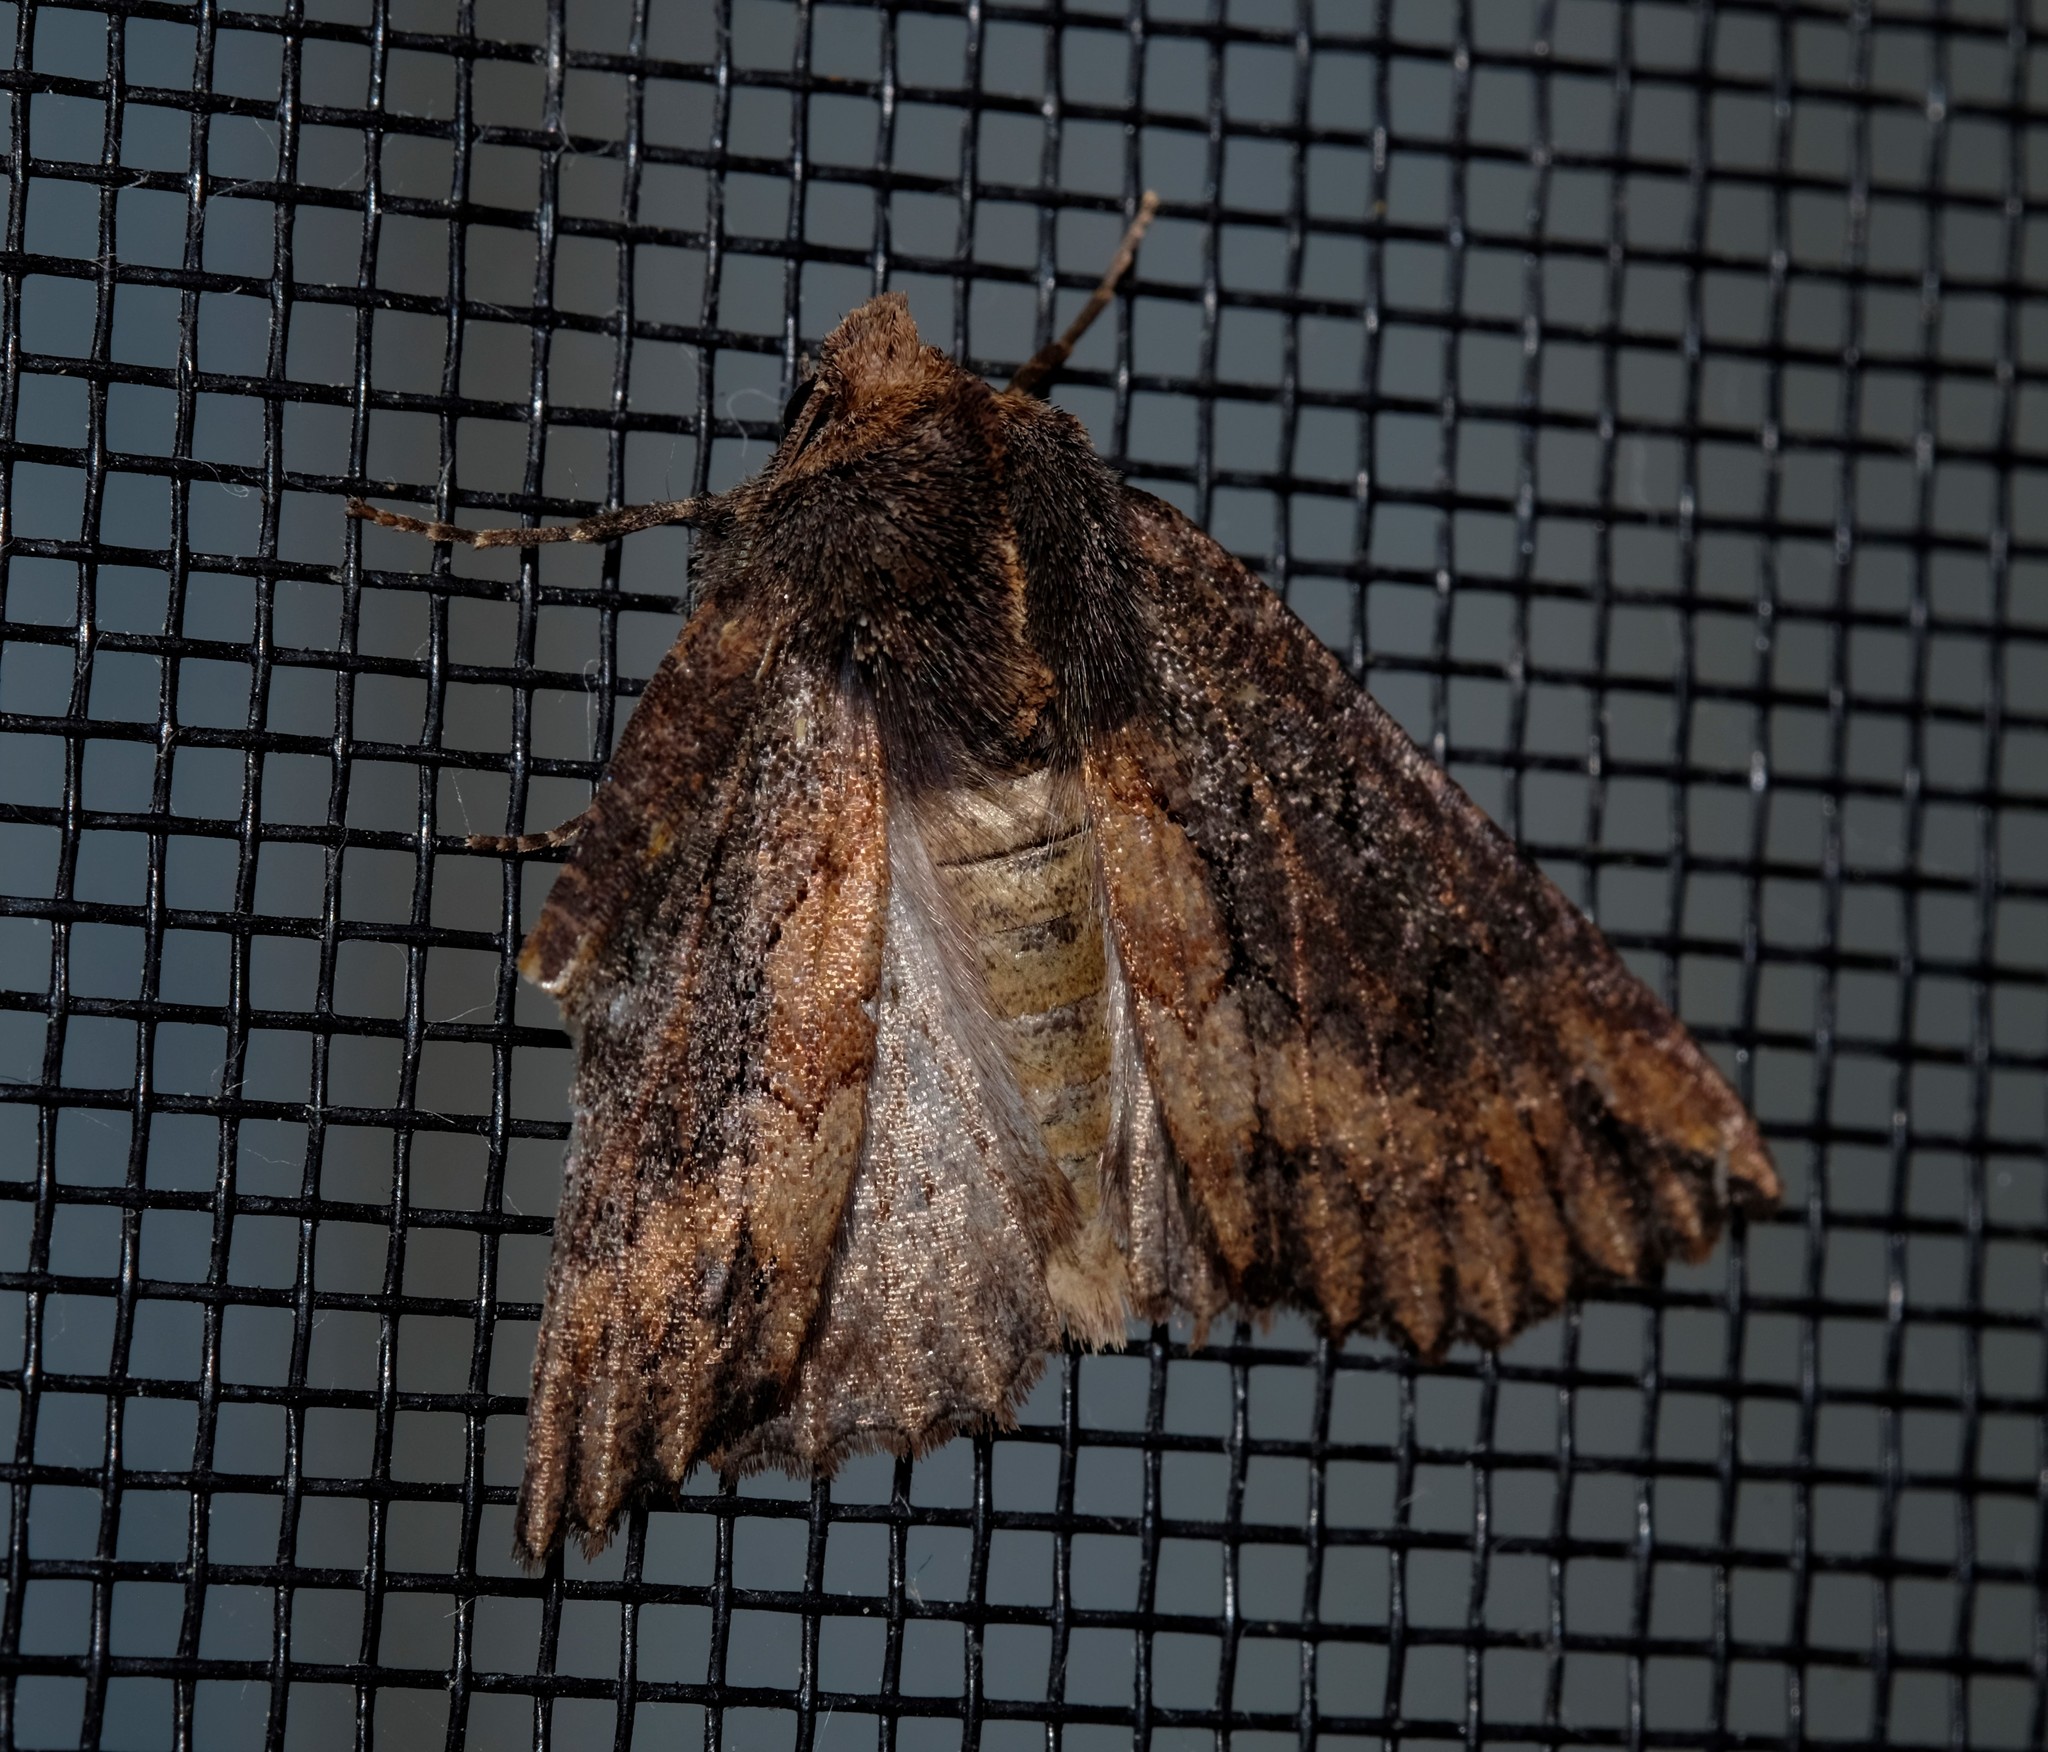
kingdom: Animalia
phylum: Arthropoda
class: Insecta
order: Lepidoptera
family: Geometridae
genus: Nisista
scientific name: Nisista serrata
